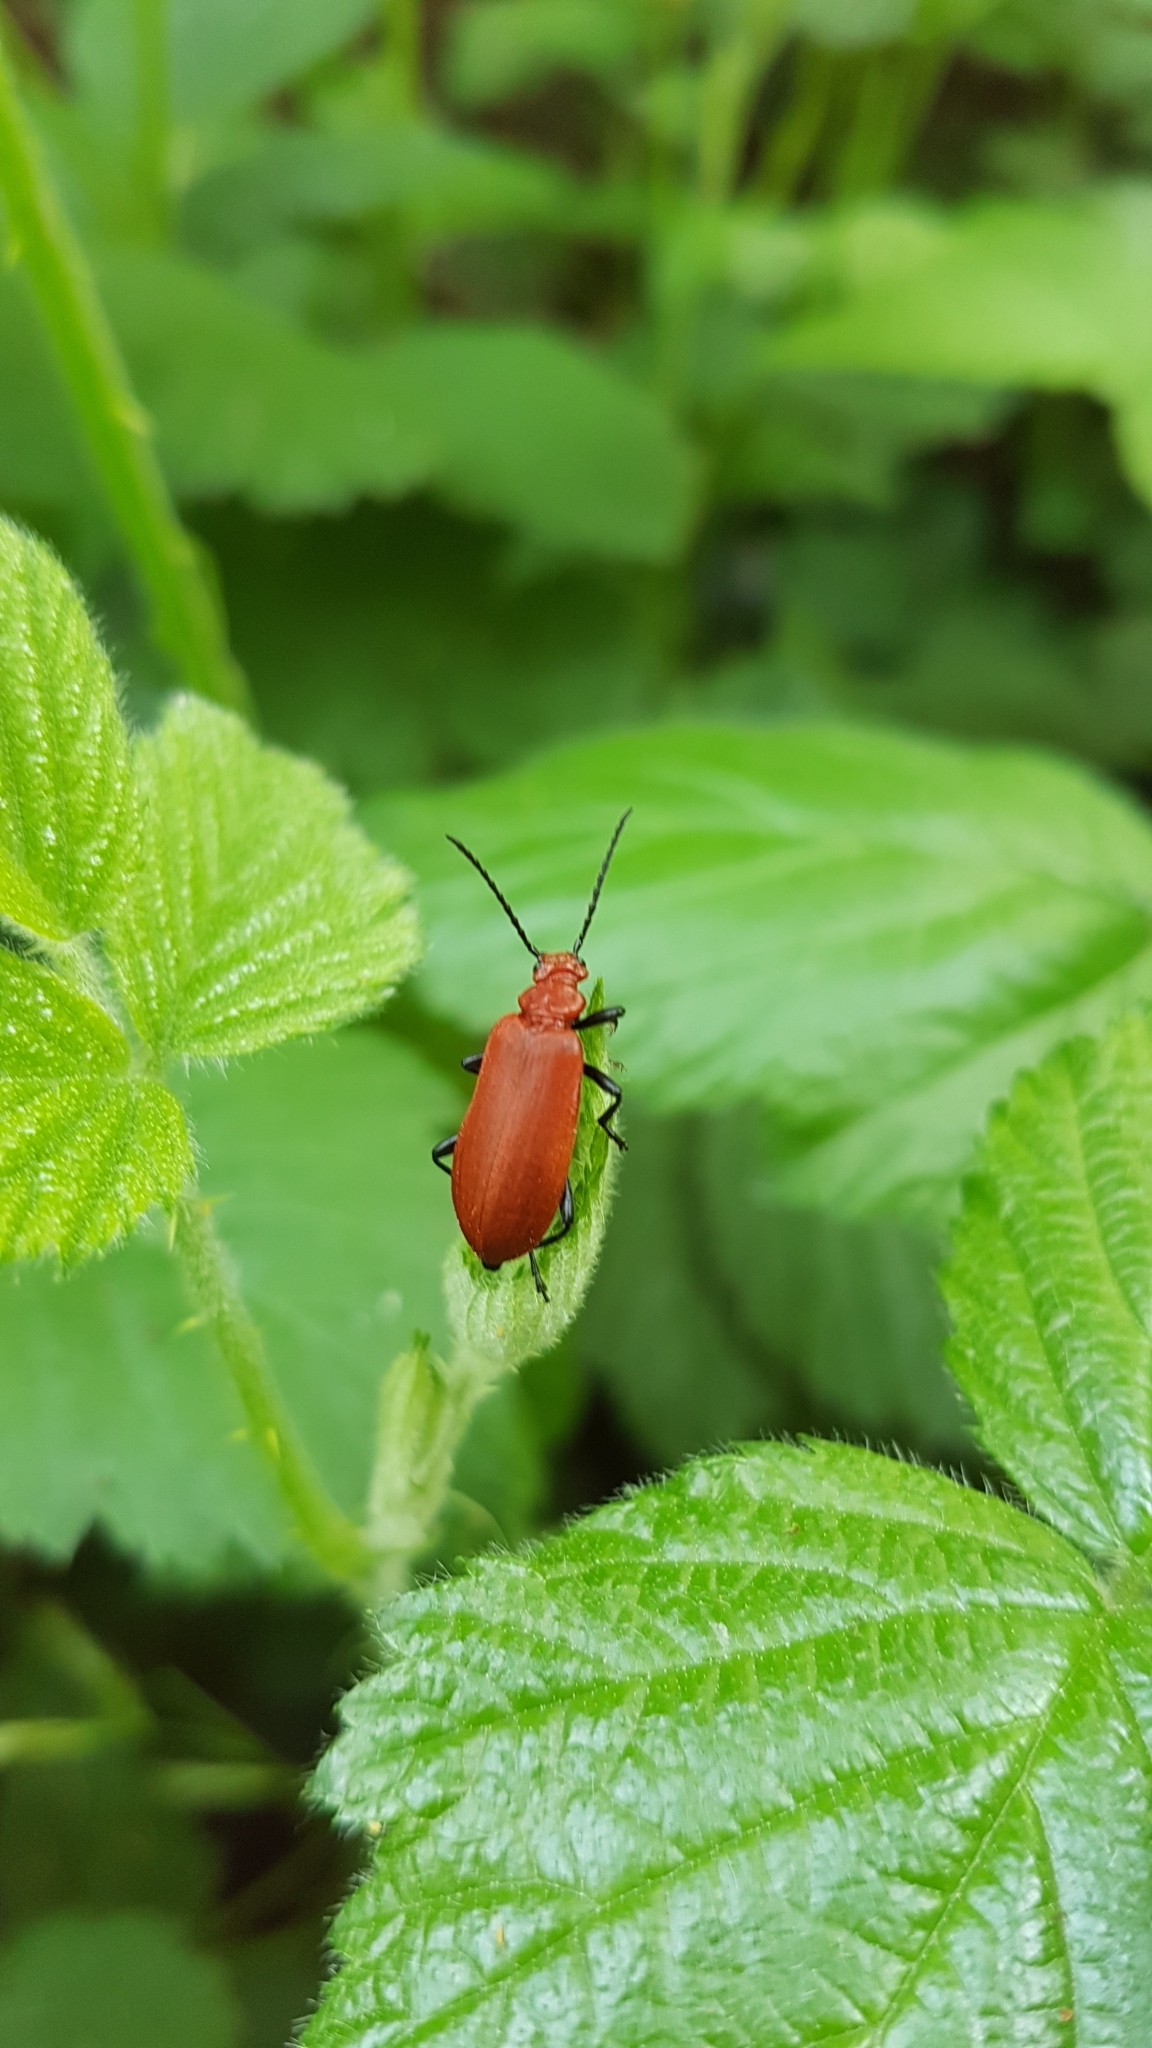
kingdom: Animalia
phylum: Arthropoda
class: Insecta
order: Coleoptera
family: Pyrochroidae
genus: Pyrochroa
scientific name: Pyrochroa serraticornis
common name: Red-headed cardinal beetle
